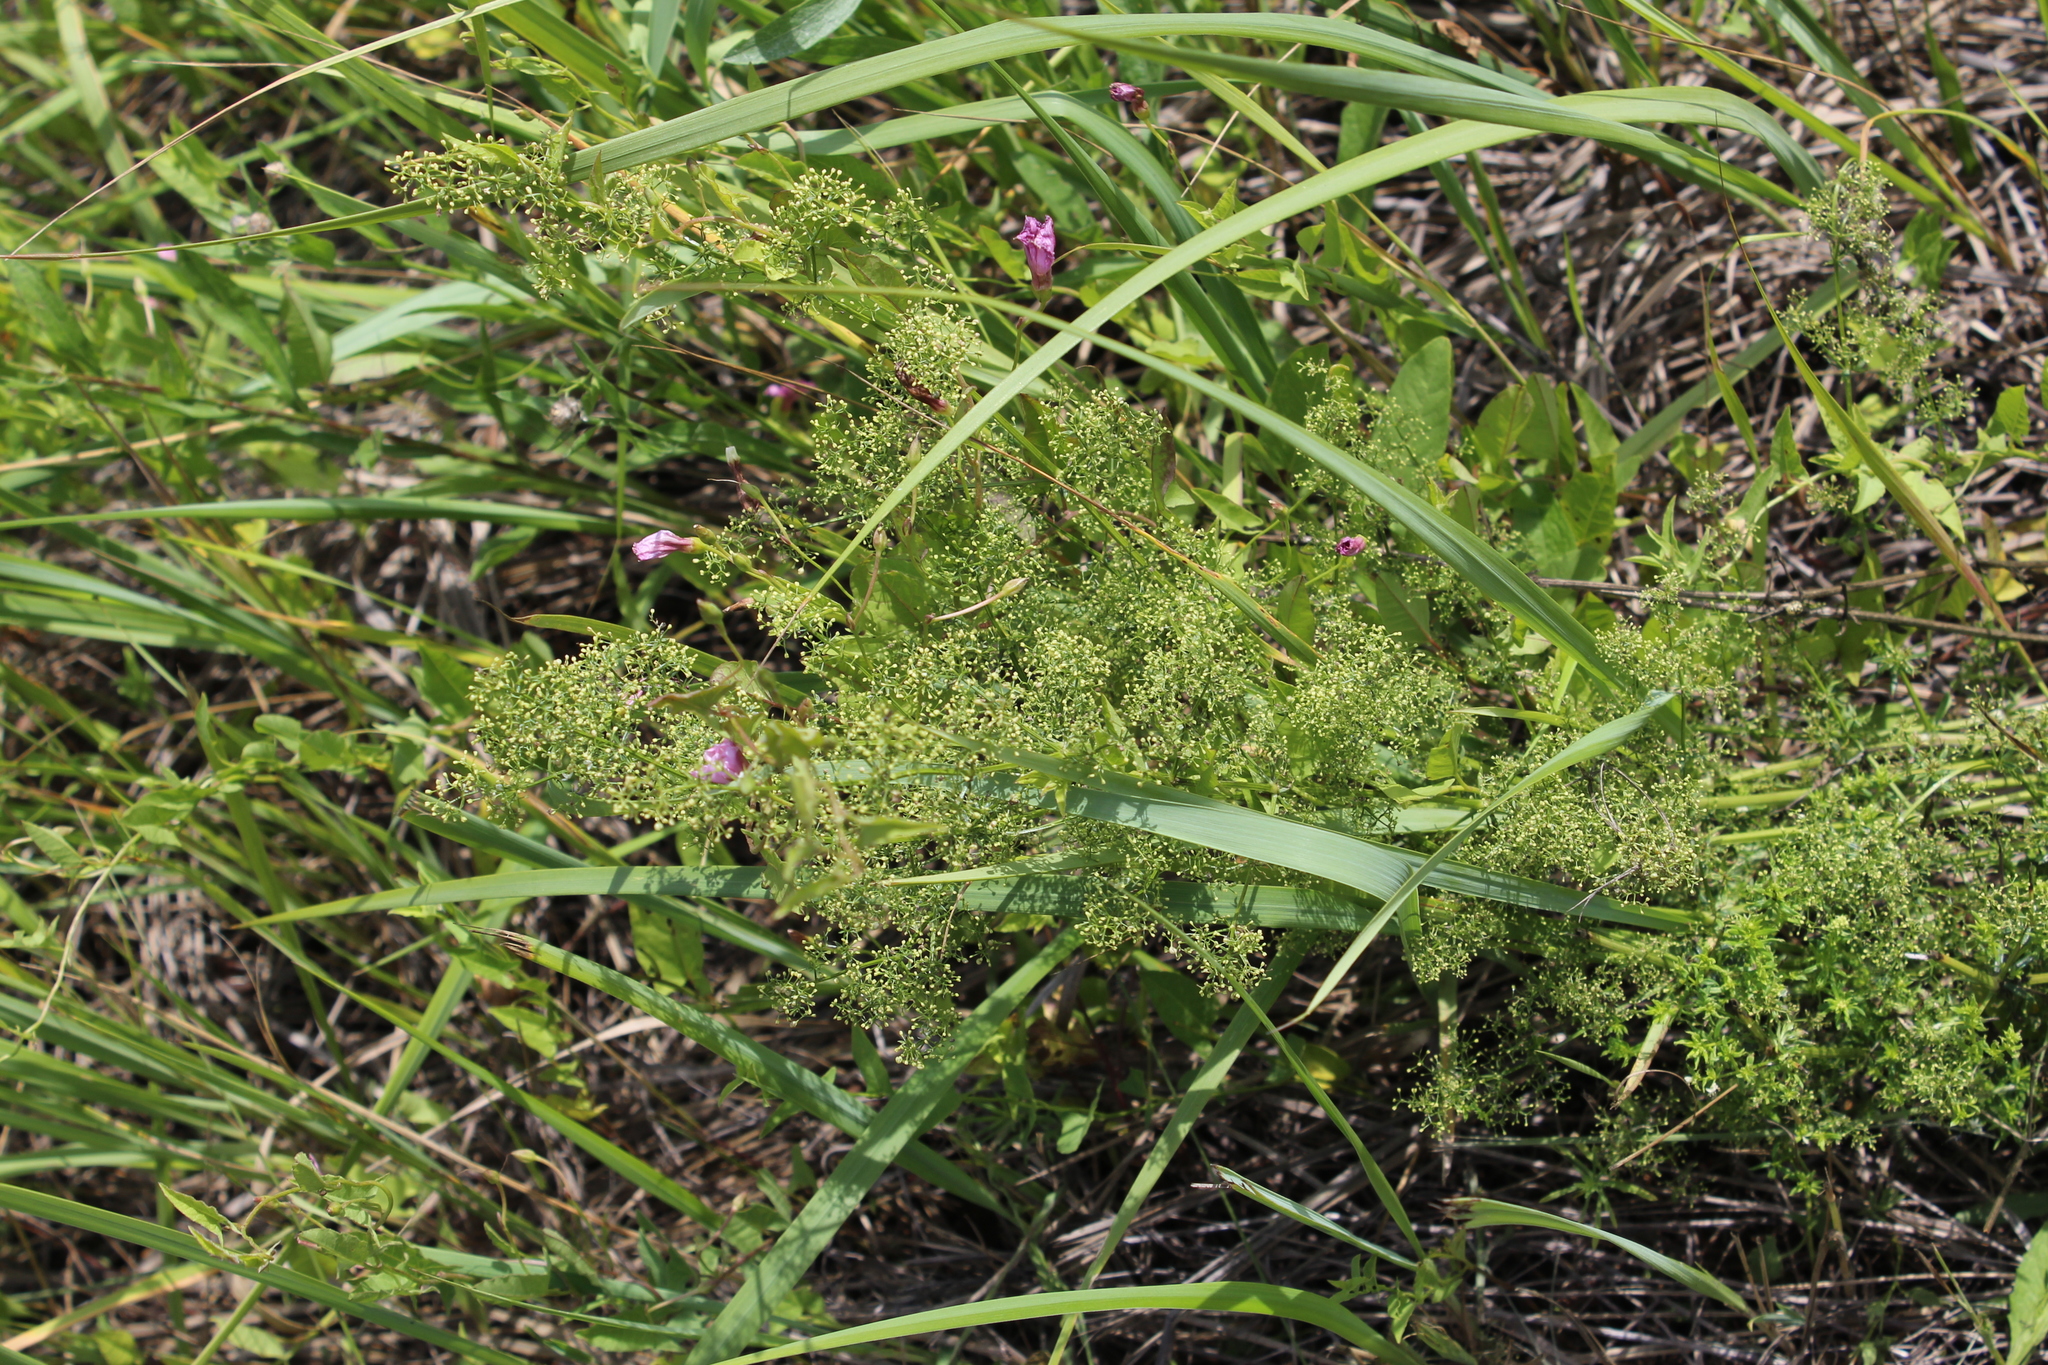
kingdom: Plantae
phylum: Tracheophyta
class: Magnoliopsida
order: Gentianales
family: Rubiaceae
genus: Galium
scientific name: Galium mollugo
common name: Hedge bedstraw
